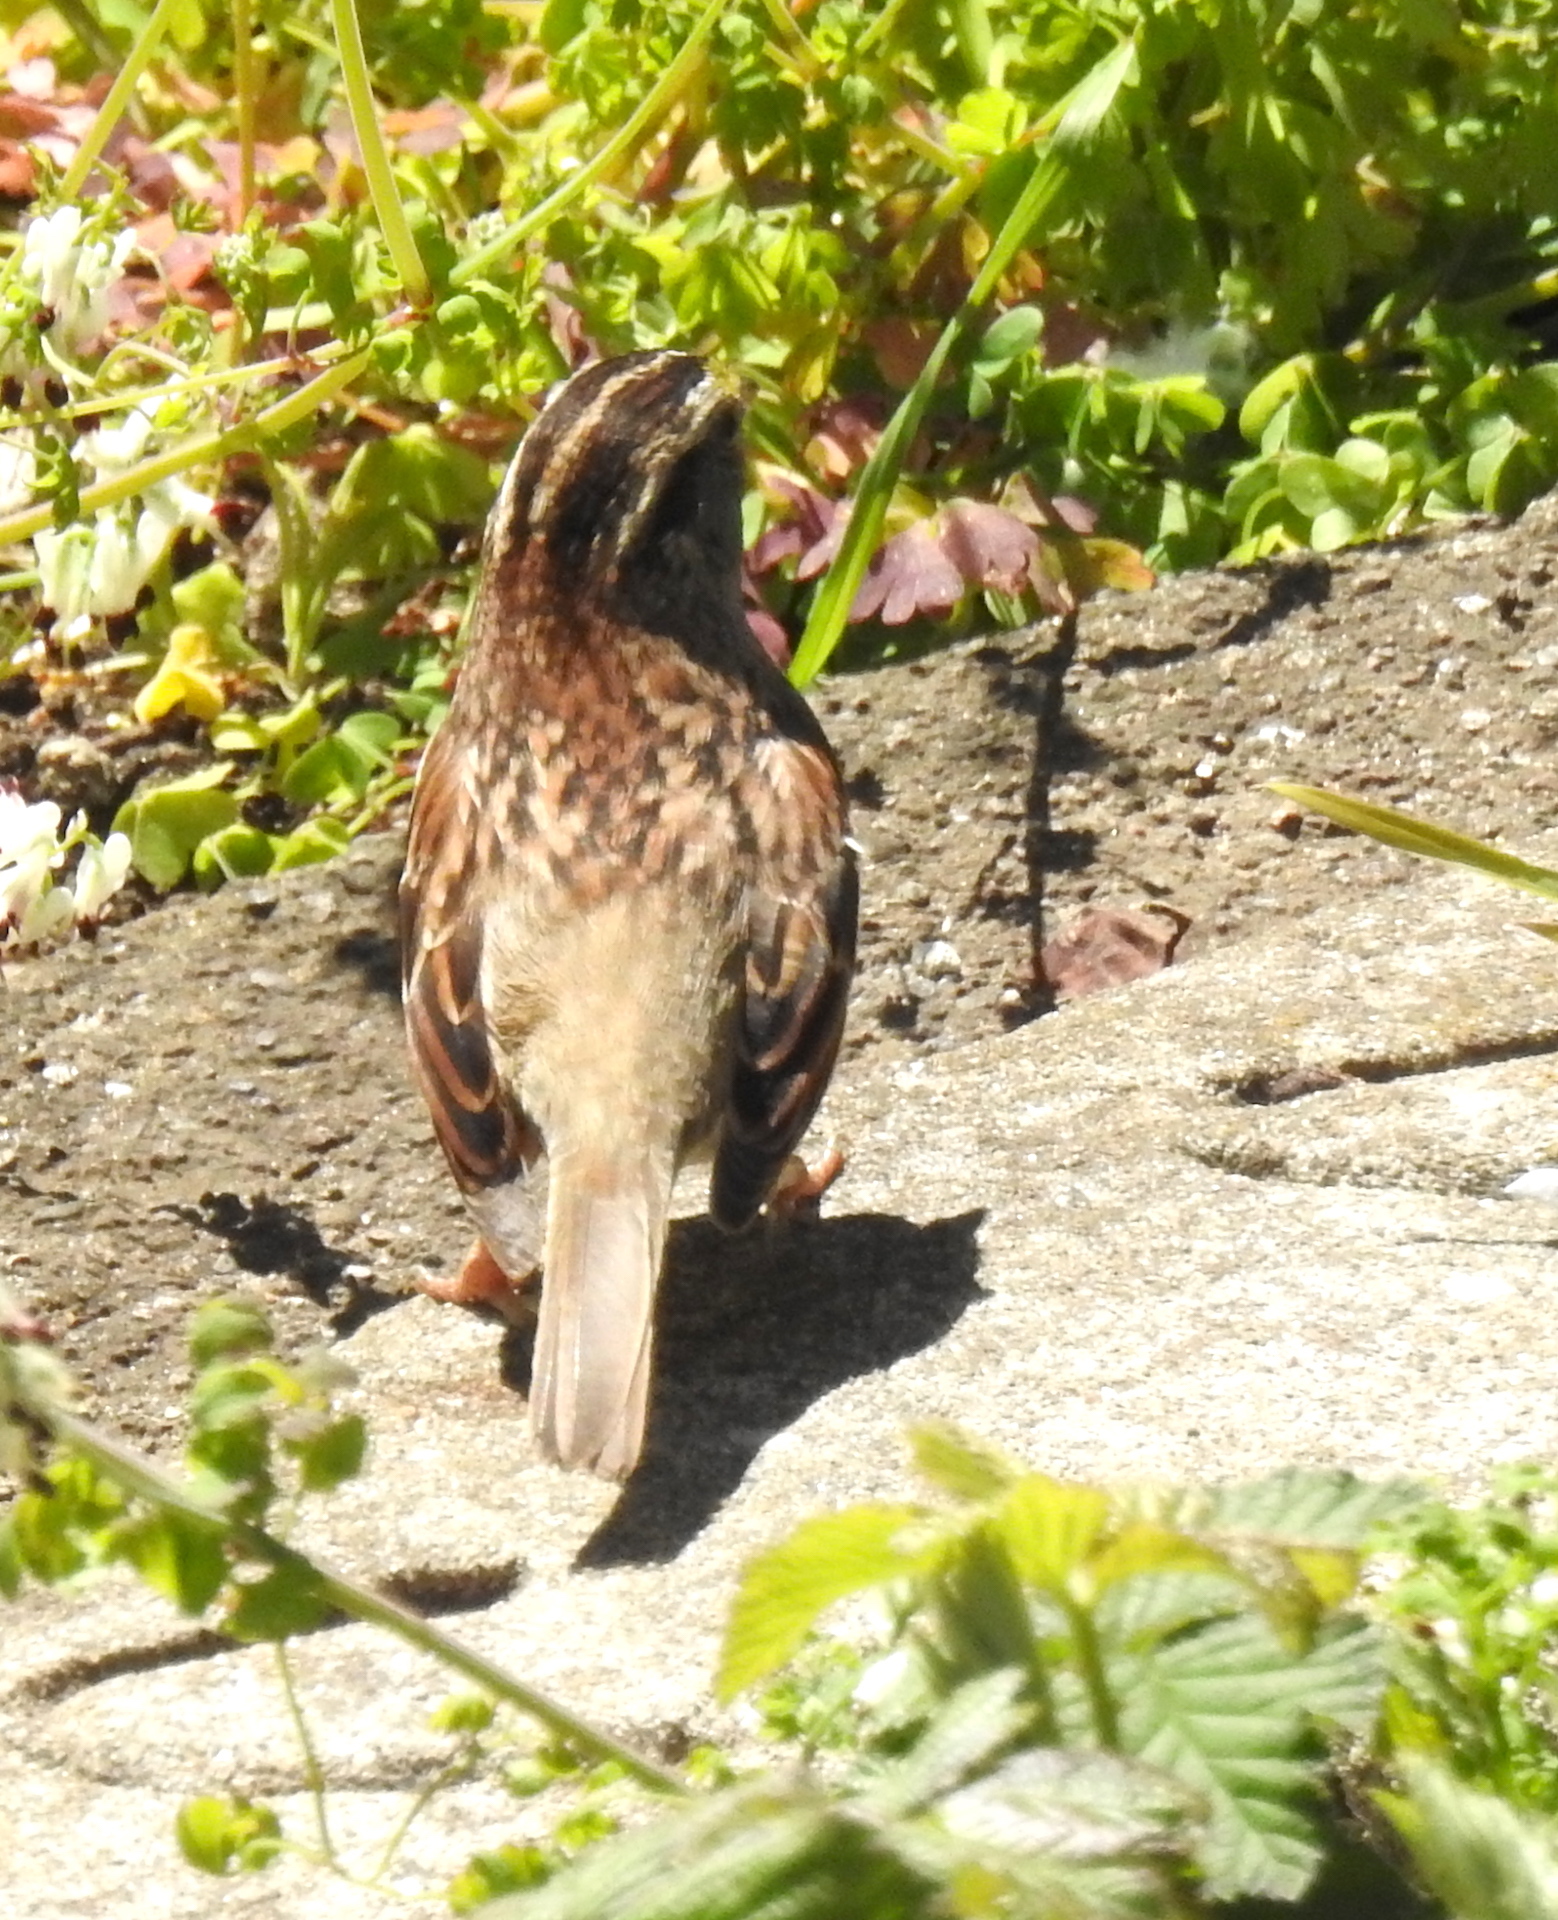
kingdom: Animalia
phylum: Chordata
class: Aves
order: Passeriformes
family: Passerellidae
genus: Zonotrichia
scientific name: Zonotrichia albicollis
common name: White-throated sparrow
